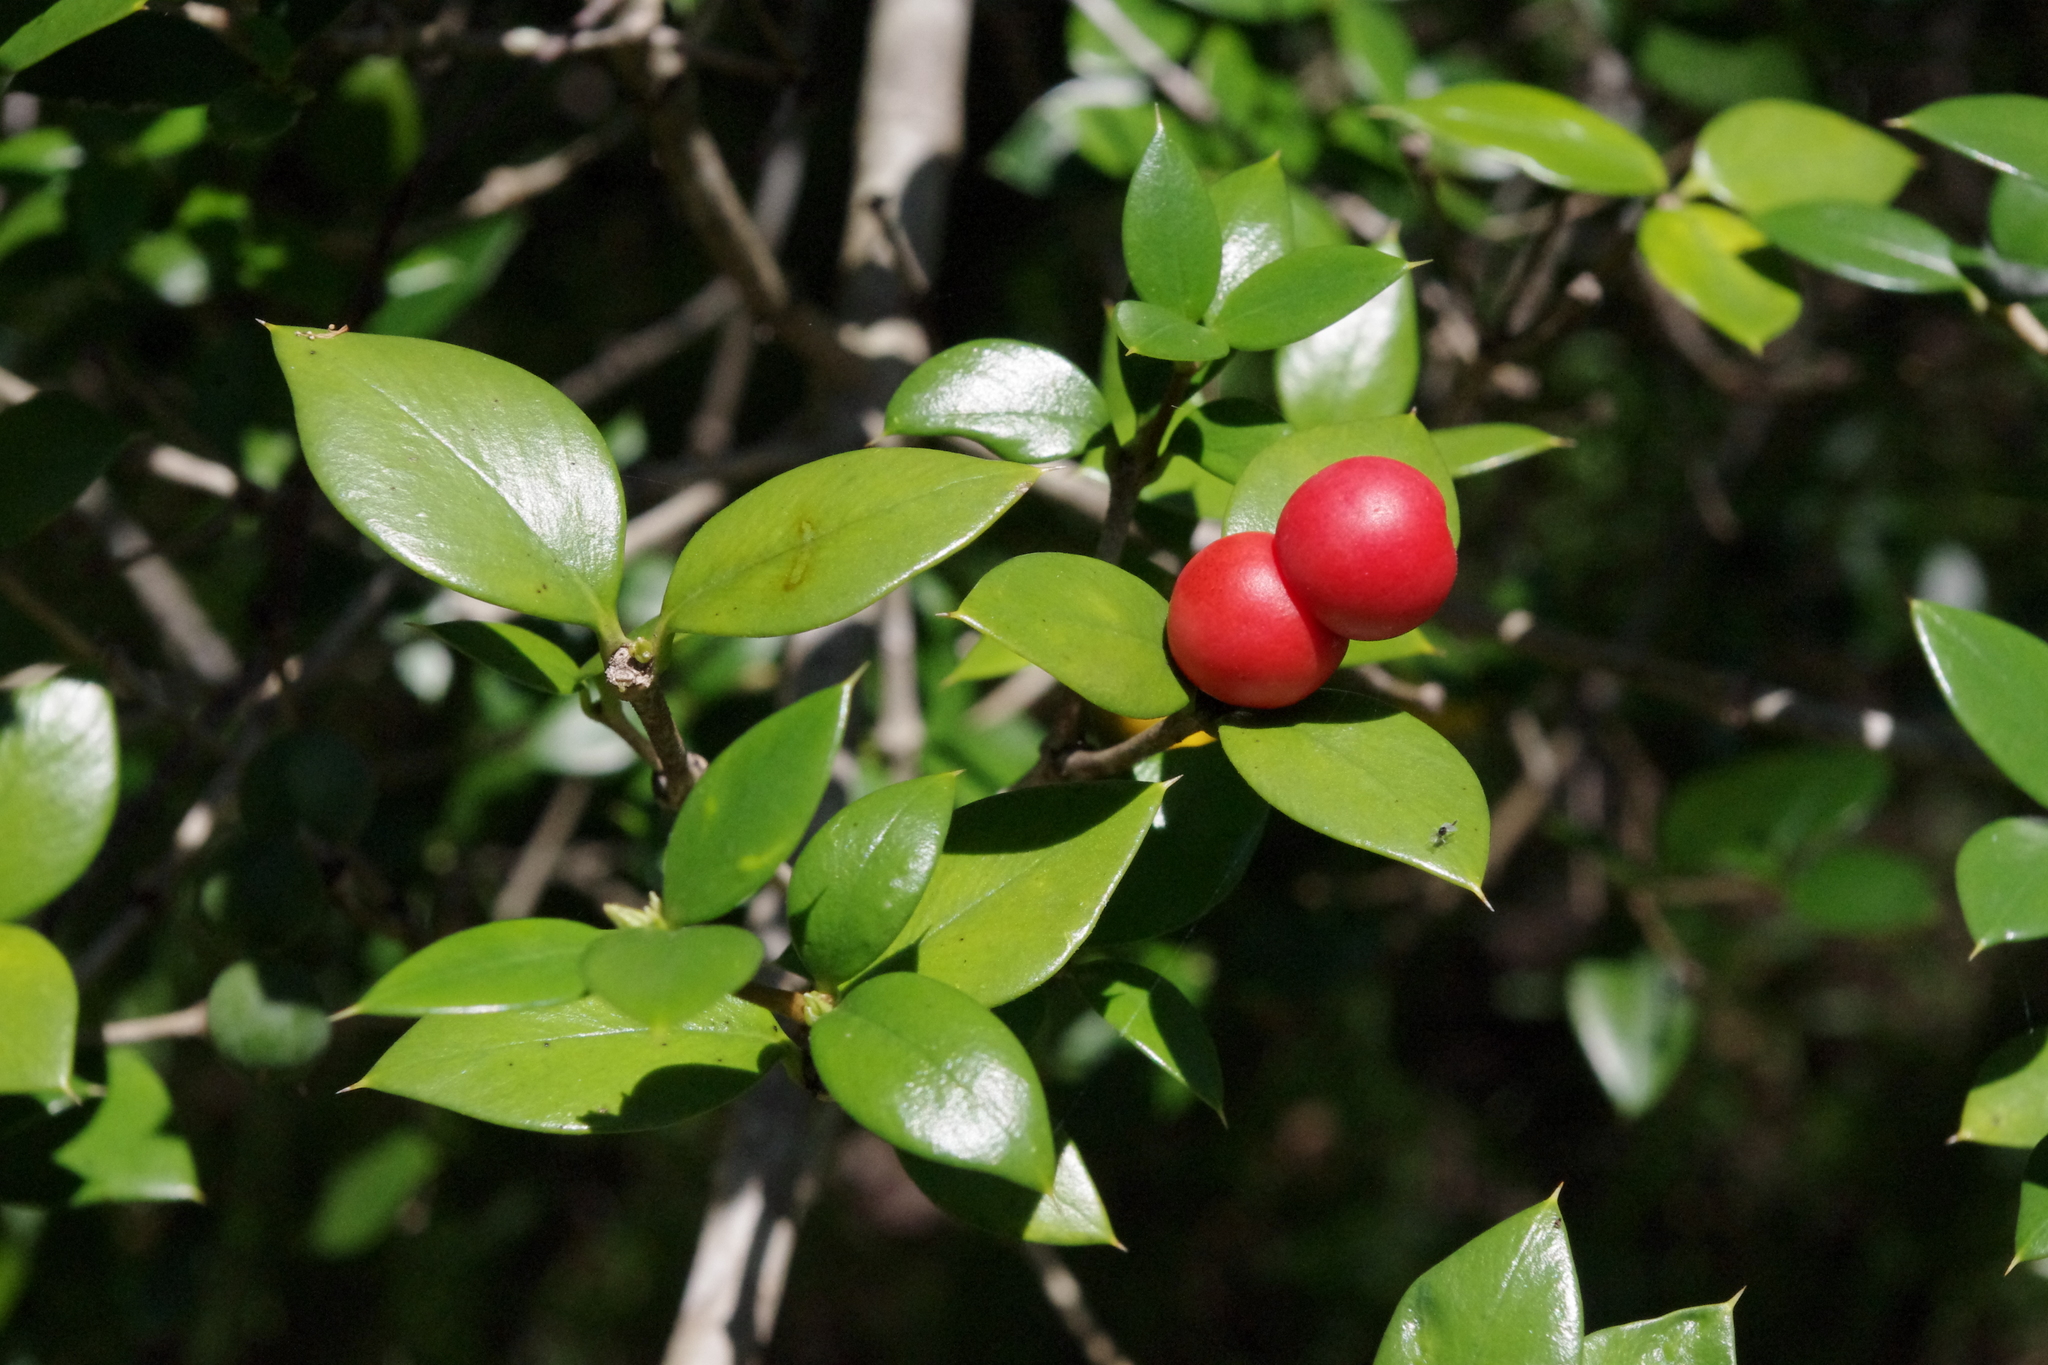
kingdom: Plantae
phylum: Tracheophyta
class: Magnoliopsida
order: Gentianales
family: Apocynaceae
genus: Alyxia
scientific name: Alyxia ruscifolia
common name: Chainfruit
